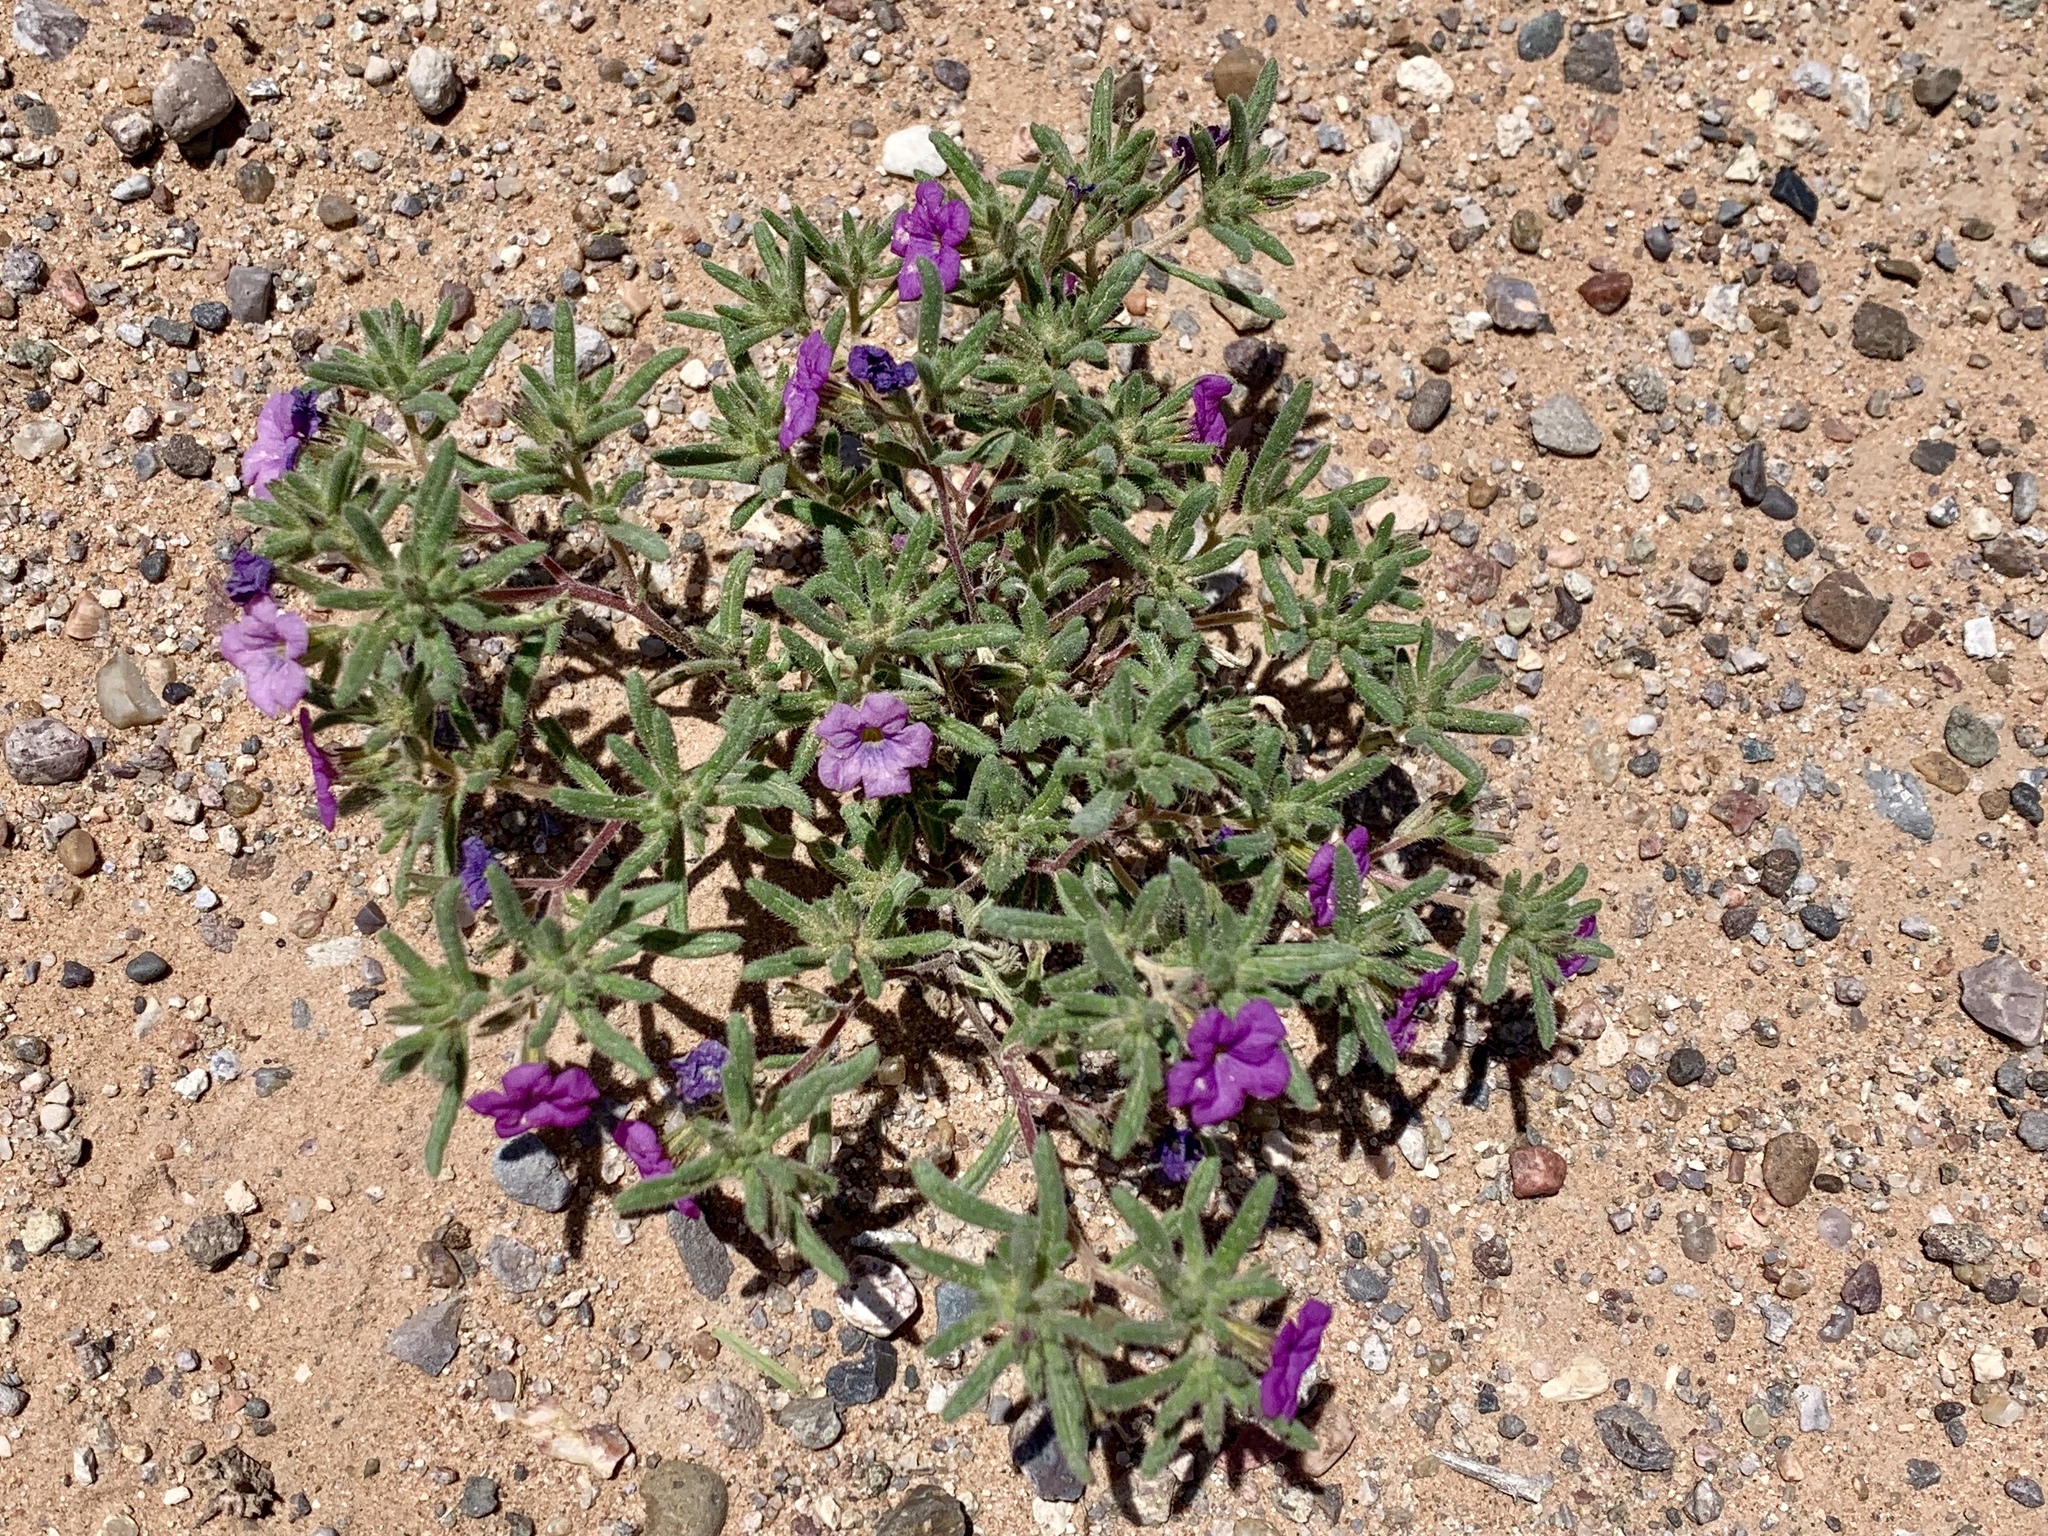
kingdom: Plantae
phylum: Tracheophyta
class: Magnoliopsida
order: Boraginales
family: Namaceae
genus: Nama
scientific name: Nama hispida
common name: Bristly nama
